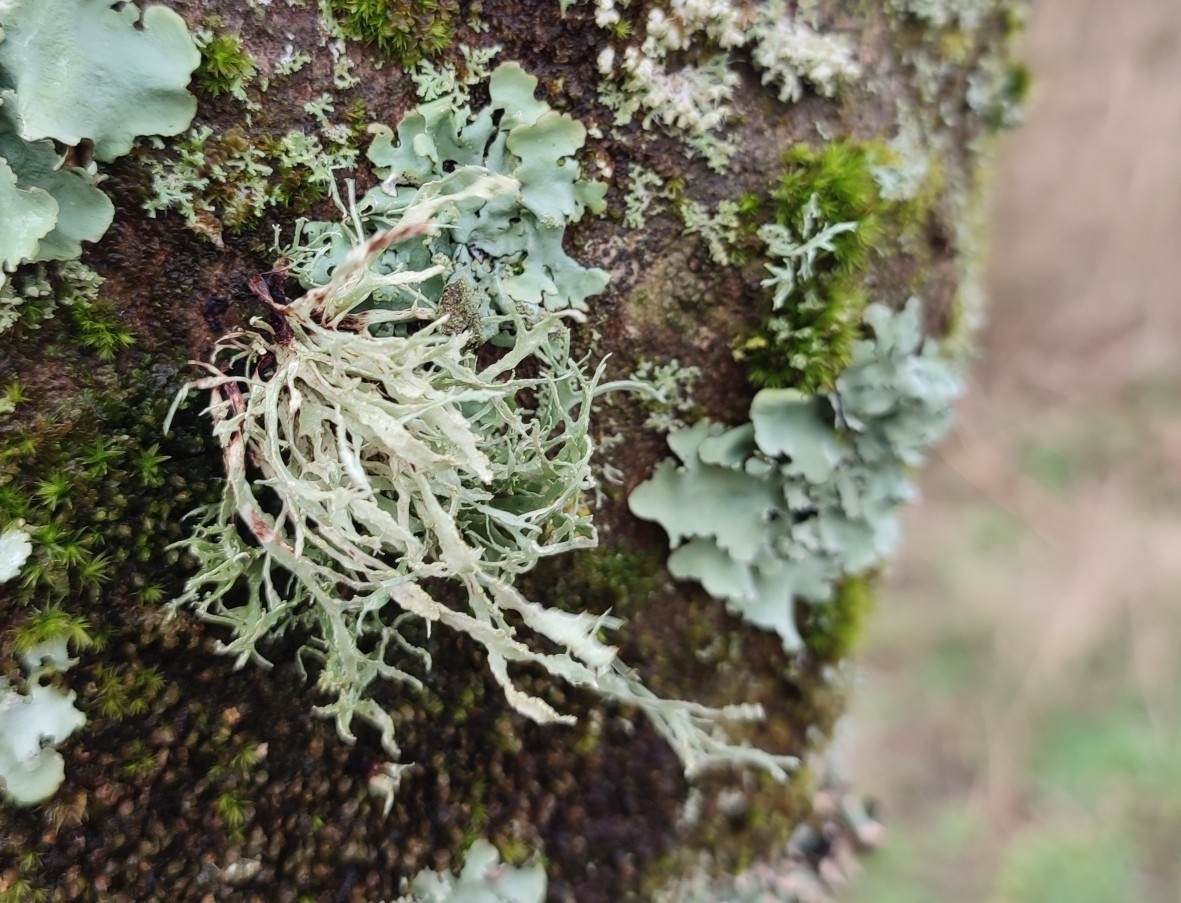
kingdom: Fungi
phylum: Ascomycota
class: Lecanoromycetes
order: Lecanorales
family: Ramalinaceae
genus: Ramalina
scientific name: Ramalina farinacea
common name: Farinose cartilage lichen
